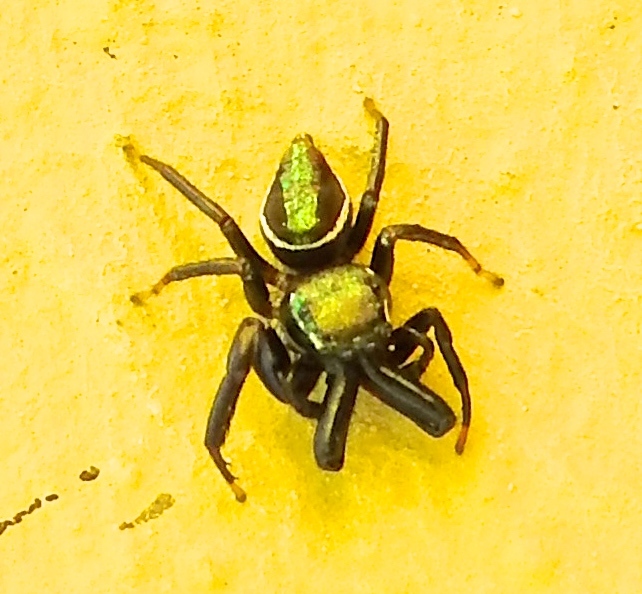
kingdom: Animalia
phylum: Arthropoda
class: Arachnida
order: Araneae
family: Salticidae
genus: Messua
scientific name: Messua limbata
